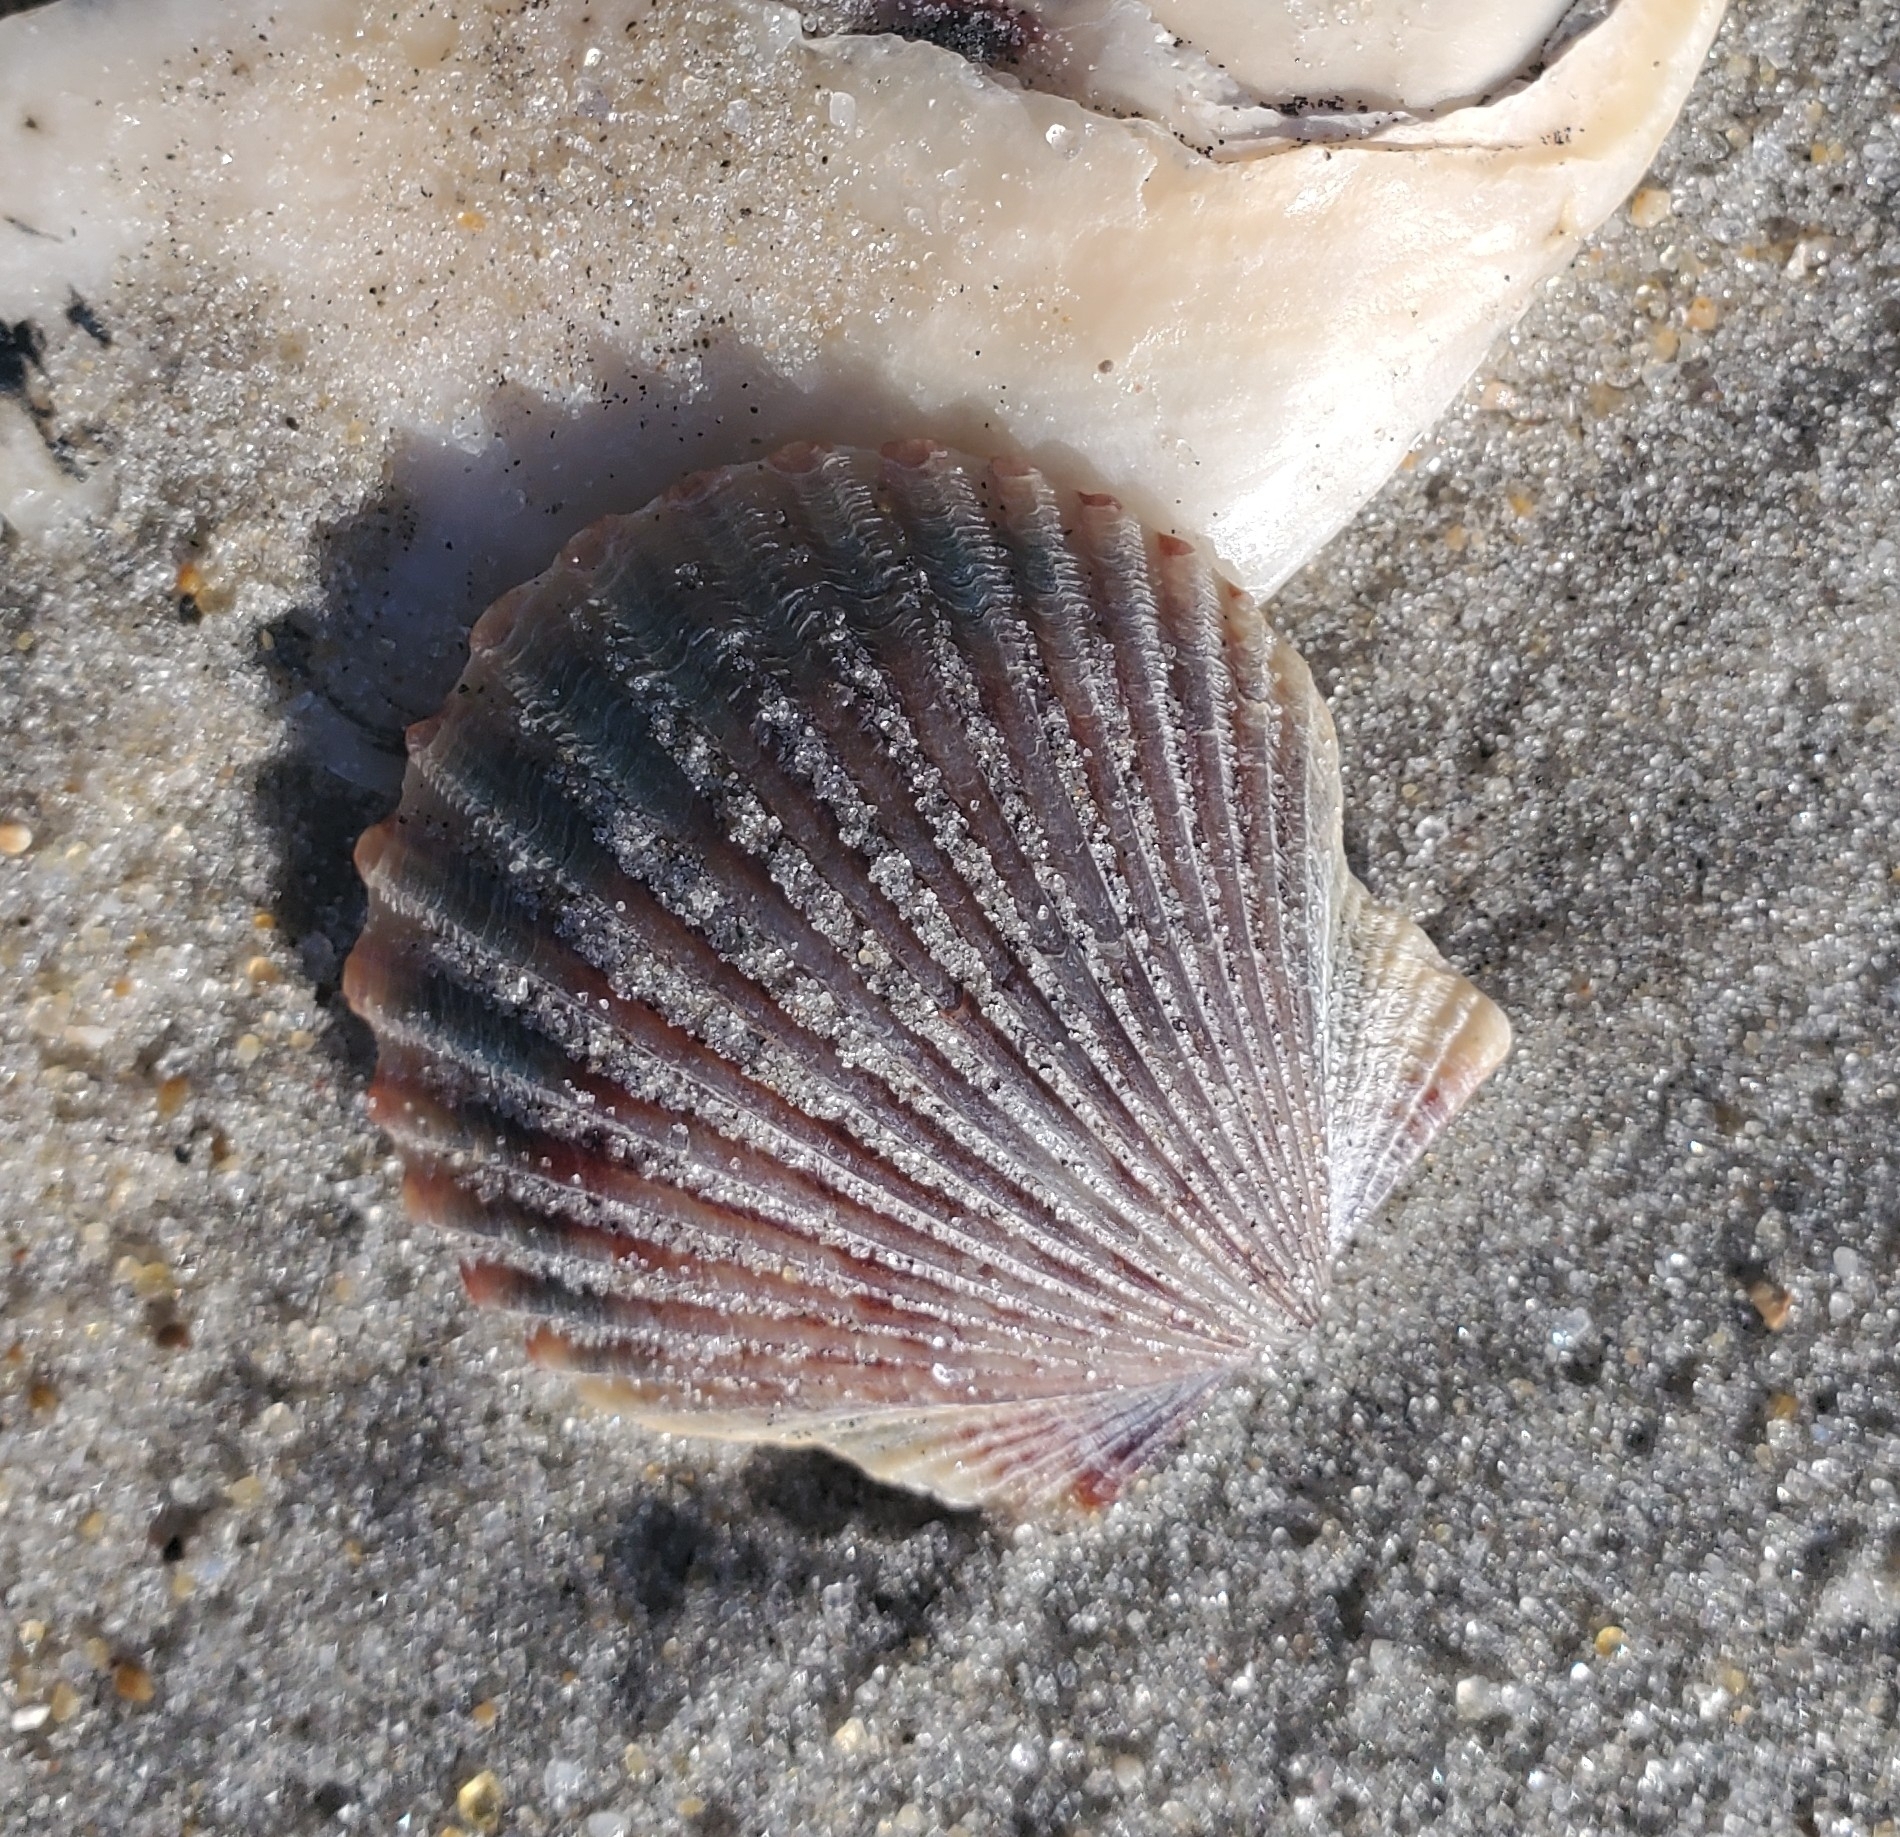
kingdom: Animalia
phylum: Mollusca
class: Bivalvia
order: Pectinida
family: Pectinidae
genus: Argopecten
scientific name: Argopecten irradians
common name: Atlantic bay scallop
